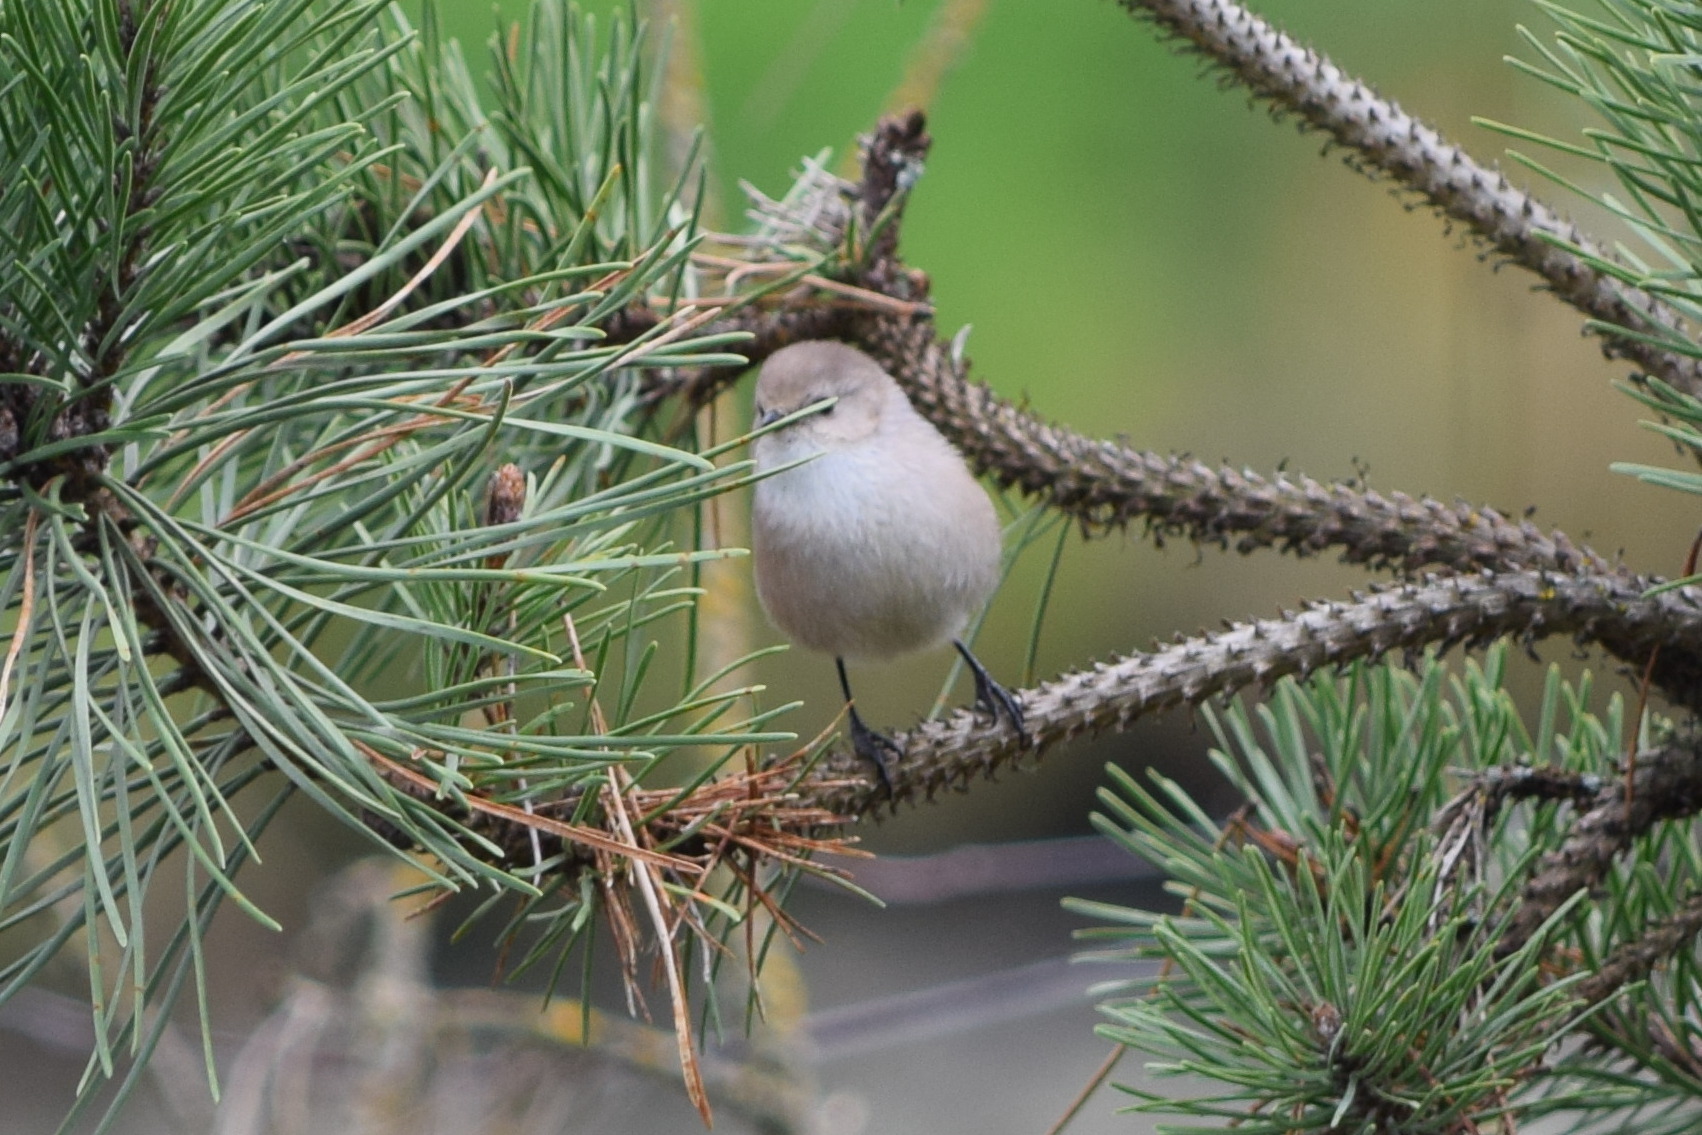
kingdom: Animalia
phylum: Chordata
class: Aves
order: Passeriformes
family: Aegithalidae
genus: Psaltriparus
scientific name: Psaltriparus minimus
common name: American bushtit
